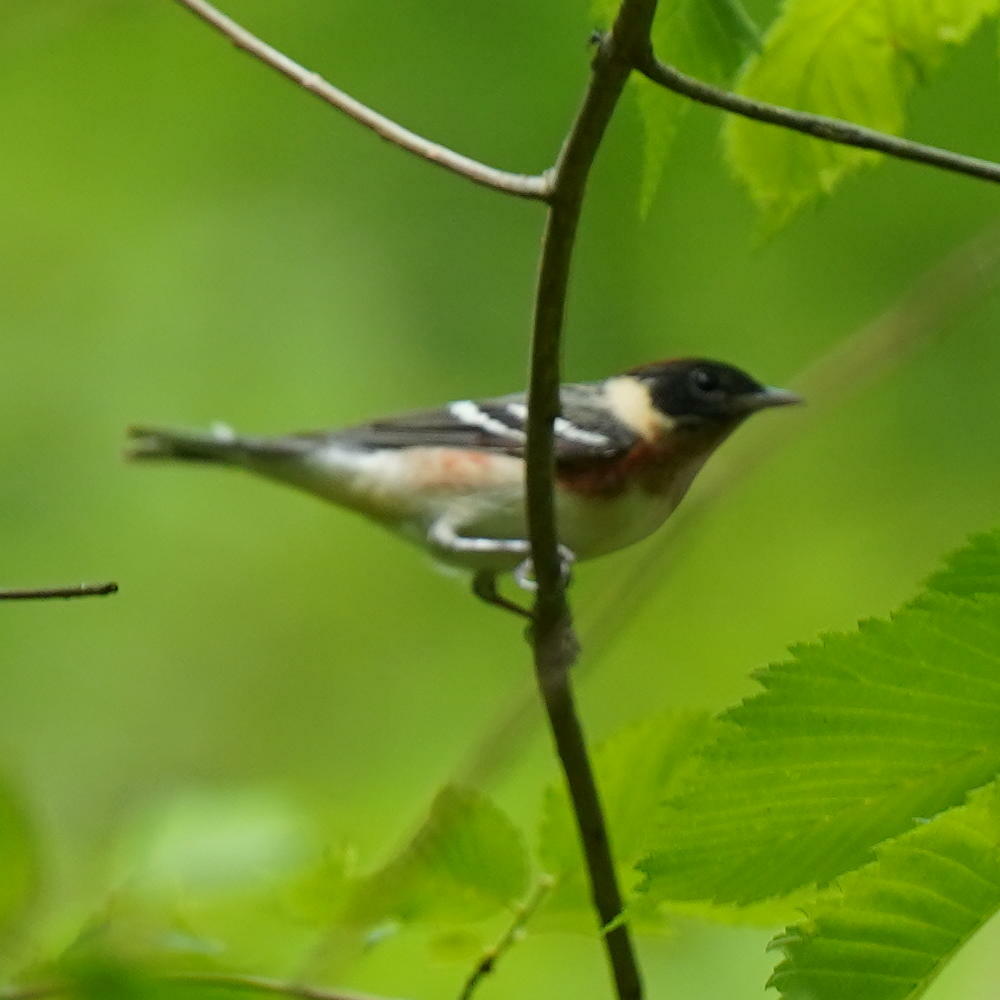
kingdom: Animalia
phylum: Chordata
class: Aves
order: Passeriformes
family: Parulidae
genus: Setophaga
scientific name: Setophaga castanea
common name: Bay-breasted warbler
